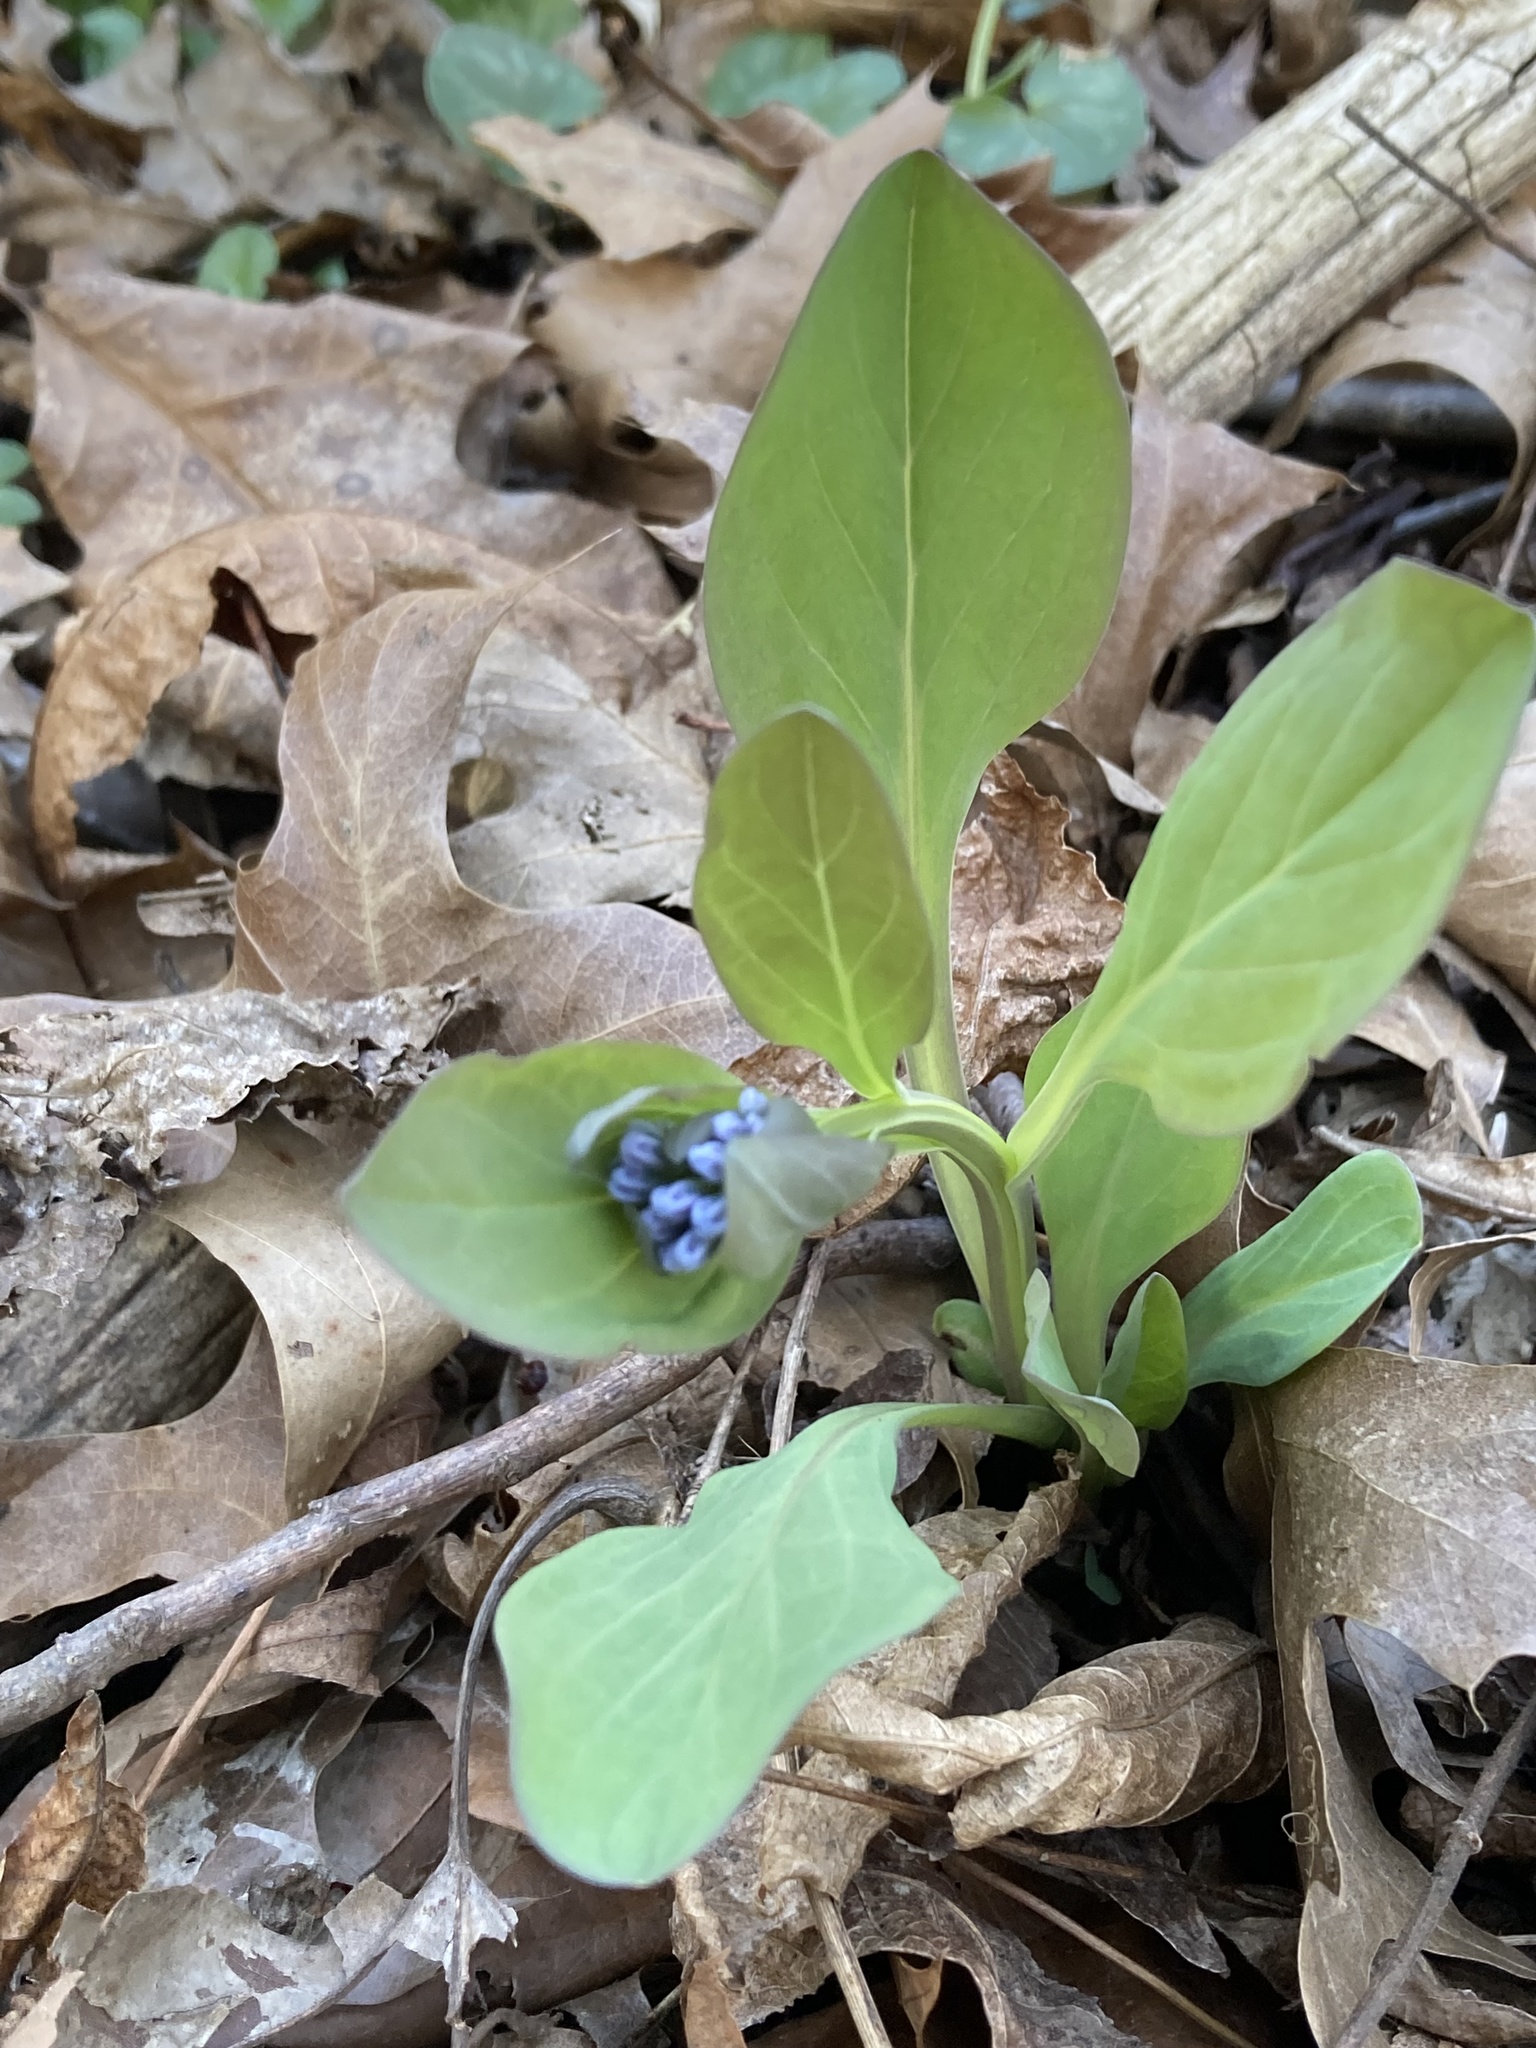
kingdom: Plantae
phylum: Tracheophyta
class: Magnoliopsida
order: Boraginales
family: Boraginaceae
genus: Mertensia
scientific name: Mertensia virginica
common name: Virginia bluebells
